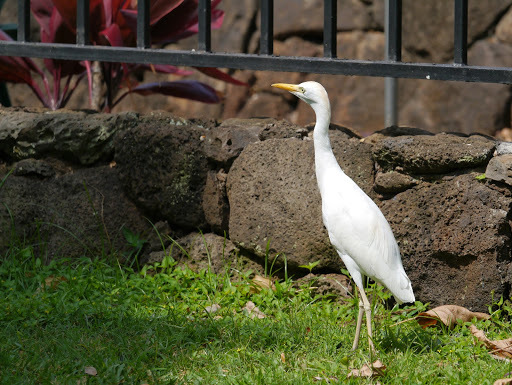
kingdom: Animalia
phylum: Chordata
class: Aves
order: Pelecaniformes
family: Ardeidae
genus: Bubulcus
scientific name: Bubulcus ibis
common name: Cattle egret
